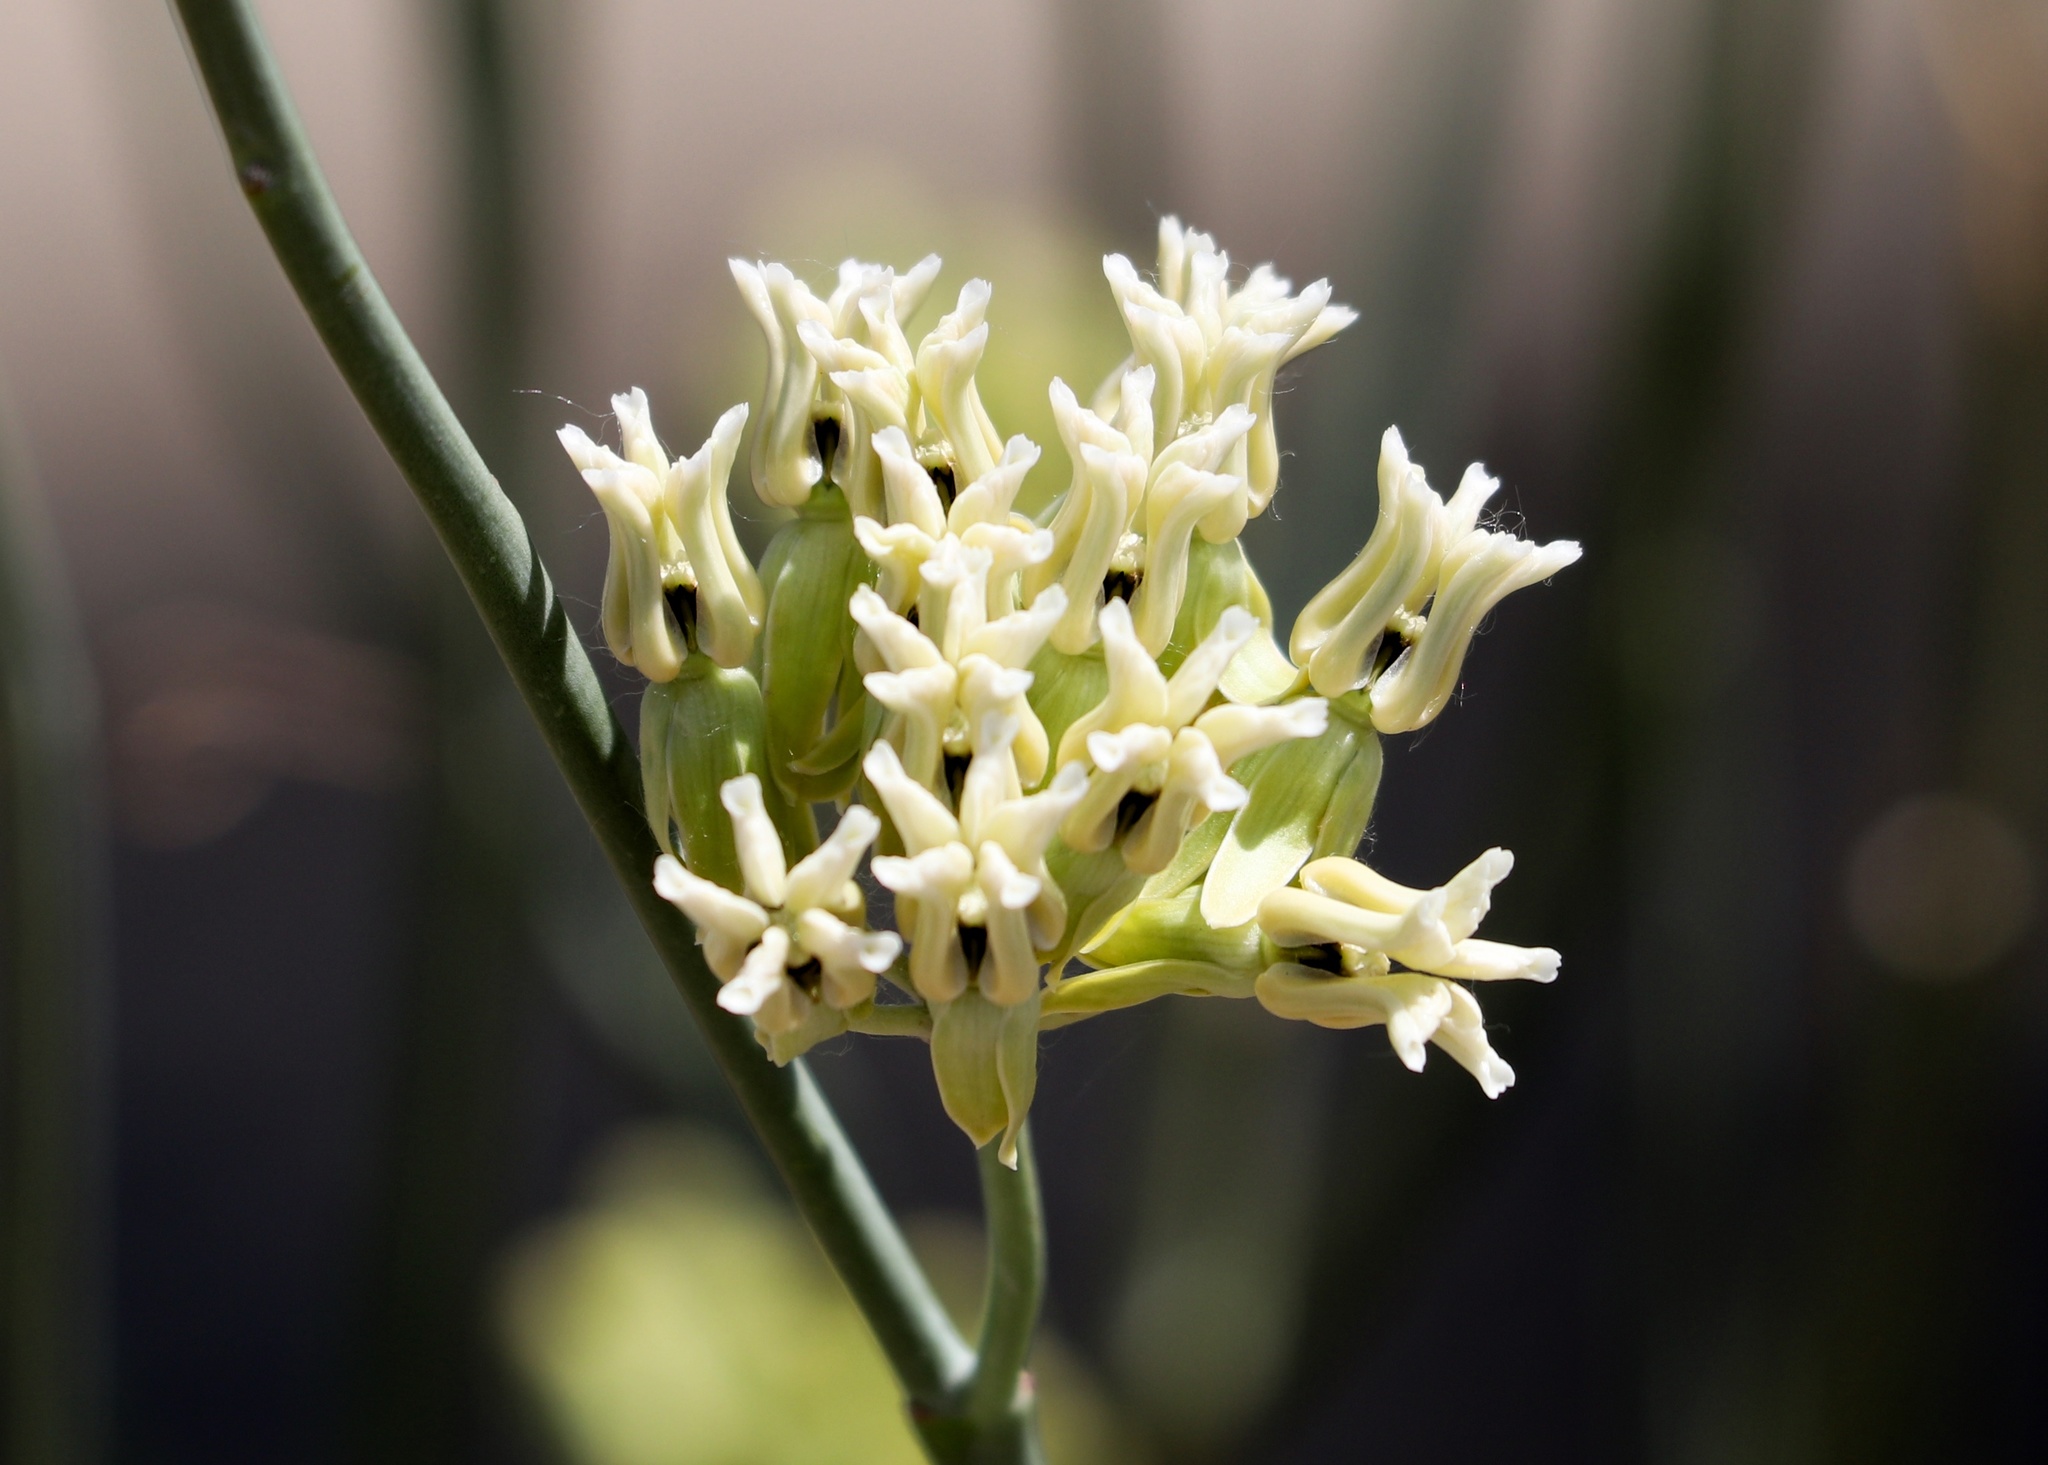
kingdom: Plantae
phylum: Tracheophyta
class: Magnoliopsida
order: Gentianales
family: Apocynaceae
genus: Asclepias
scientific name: Asclepias subulata
